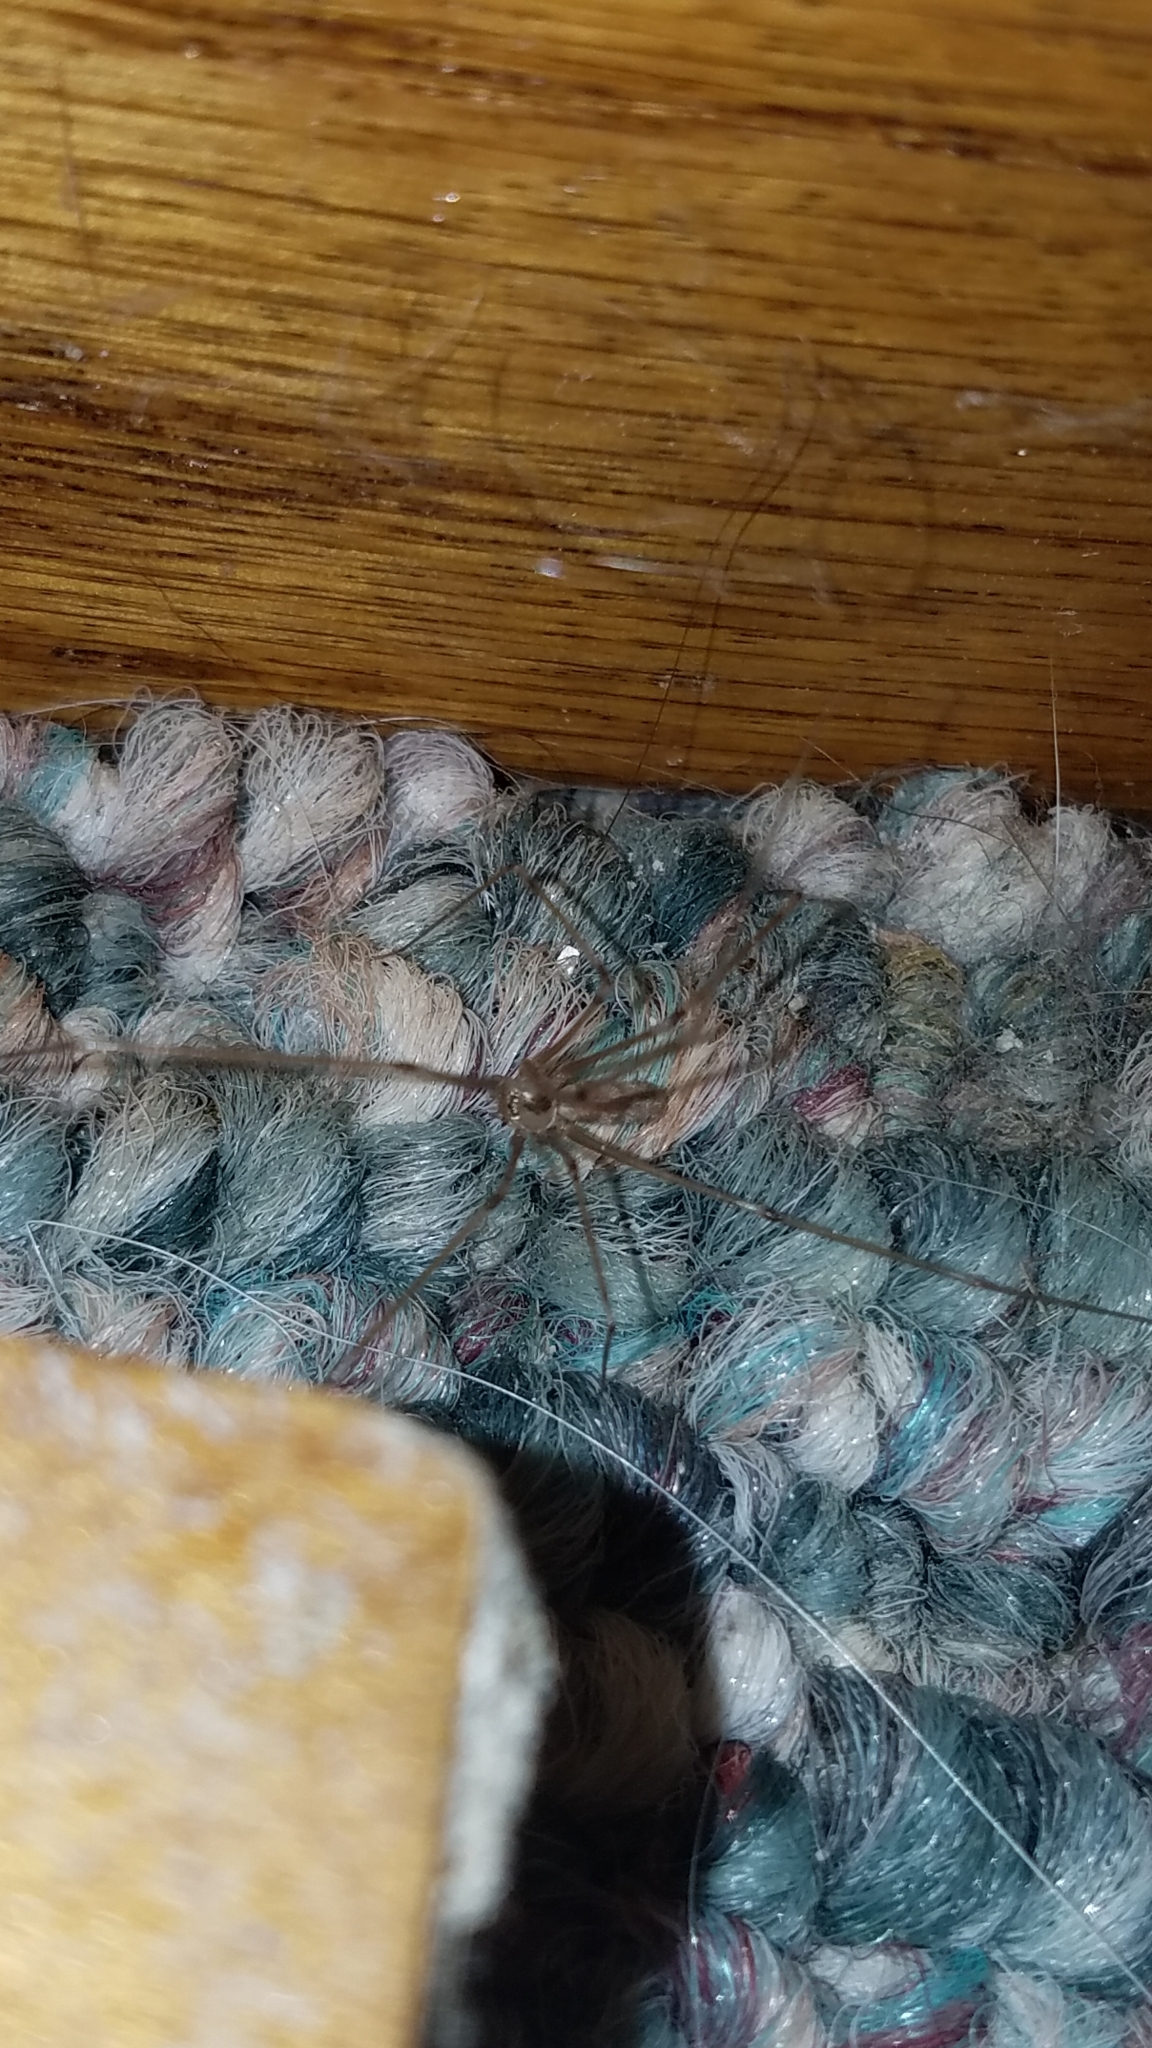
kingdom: Animalia
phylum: Arthropoda
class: Arachnida
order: Araneae
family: Pholcidae
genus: Pholcus
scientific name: Pholcus phalangioides
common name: Longbodied cellar spider
